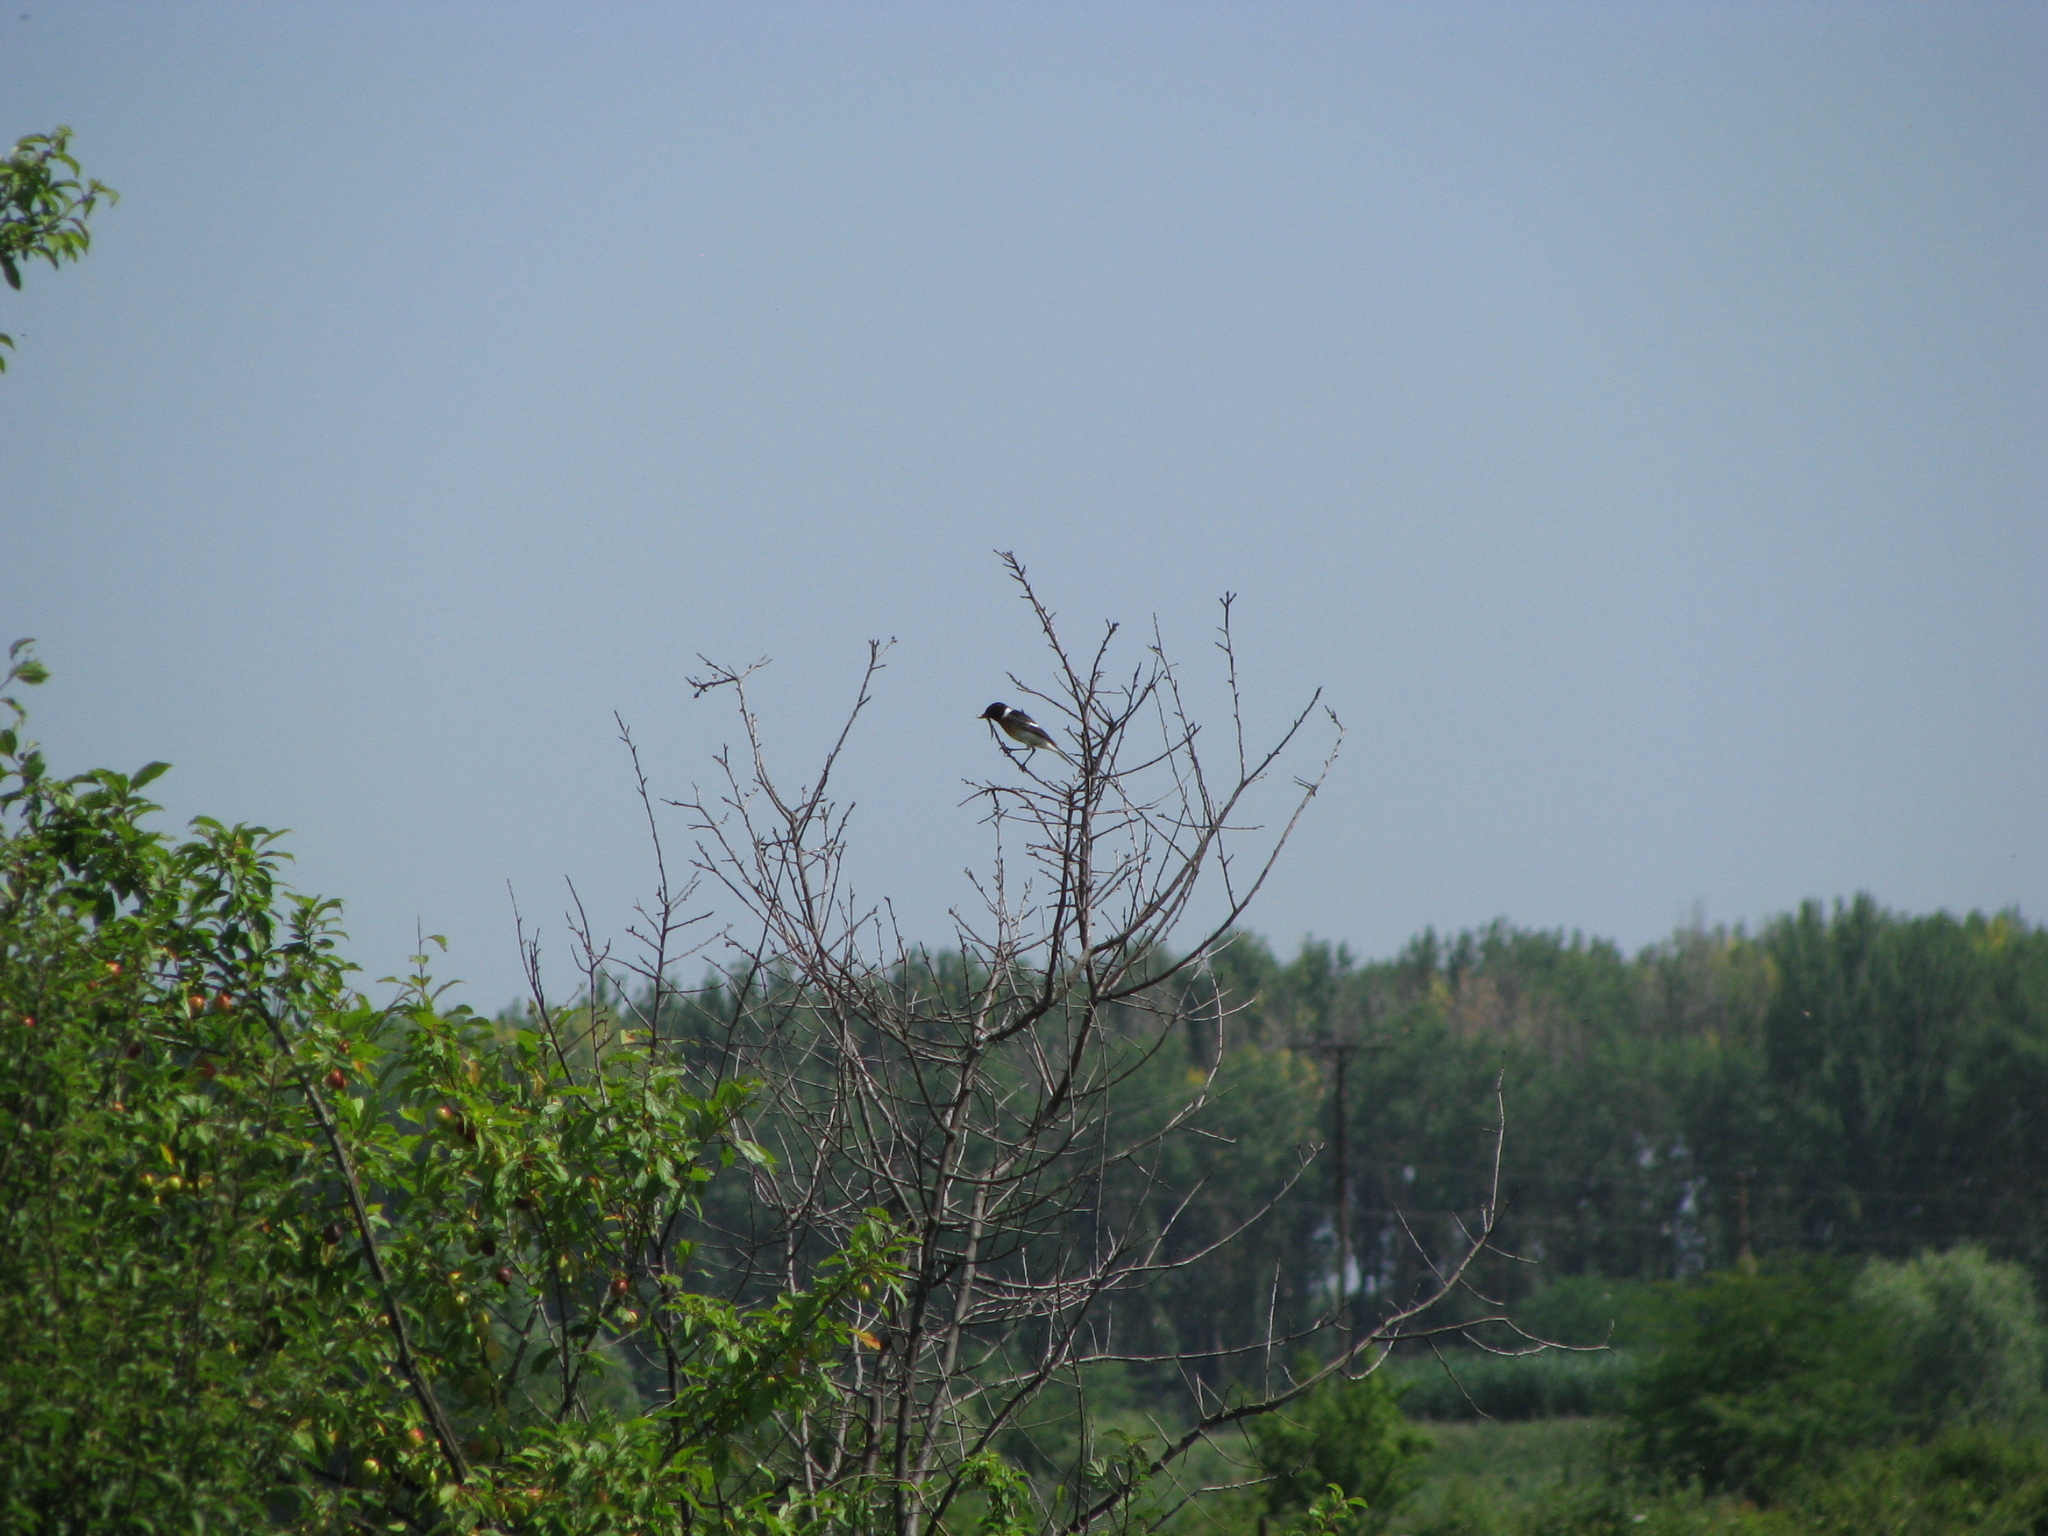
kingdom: Animalia
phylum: Chordata
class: Aves
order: Passeriformes
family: Muscicapidae
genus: Saxicola
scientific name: Saxicola maurus
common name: Siberian stonechat
